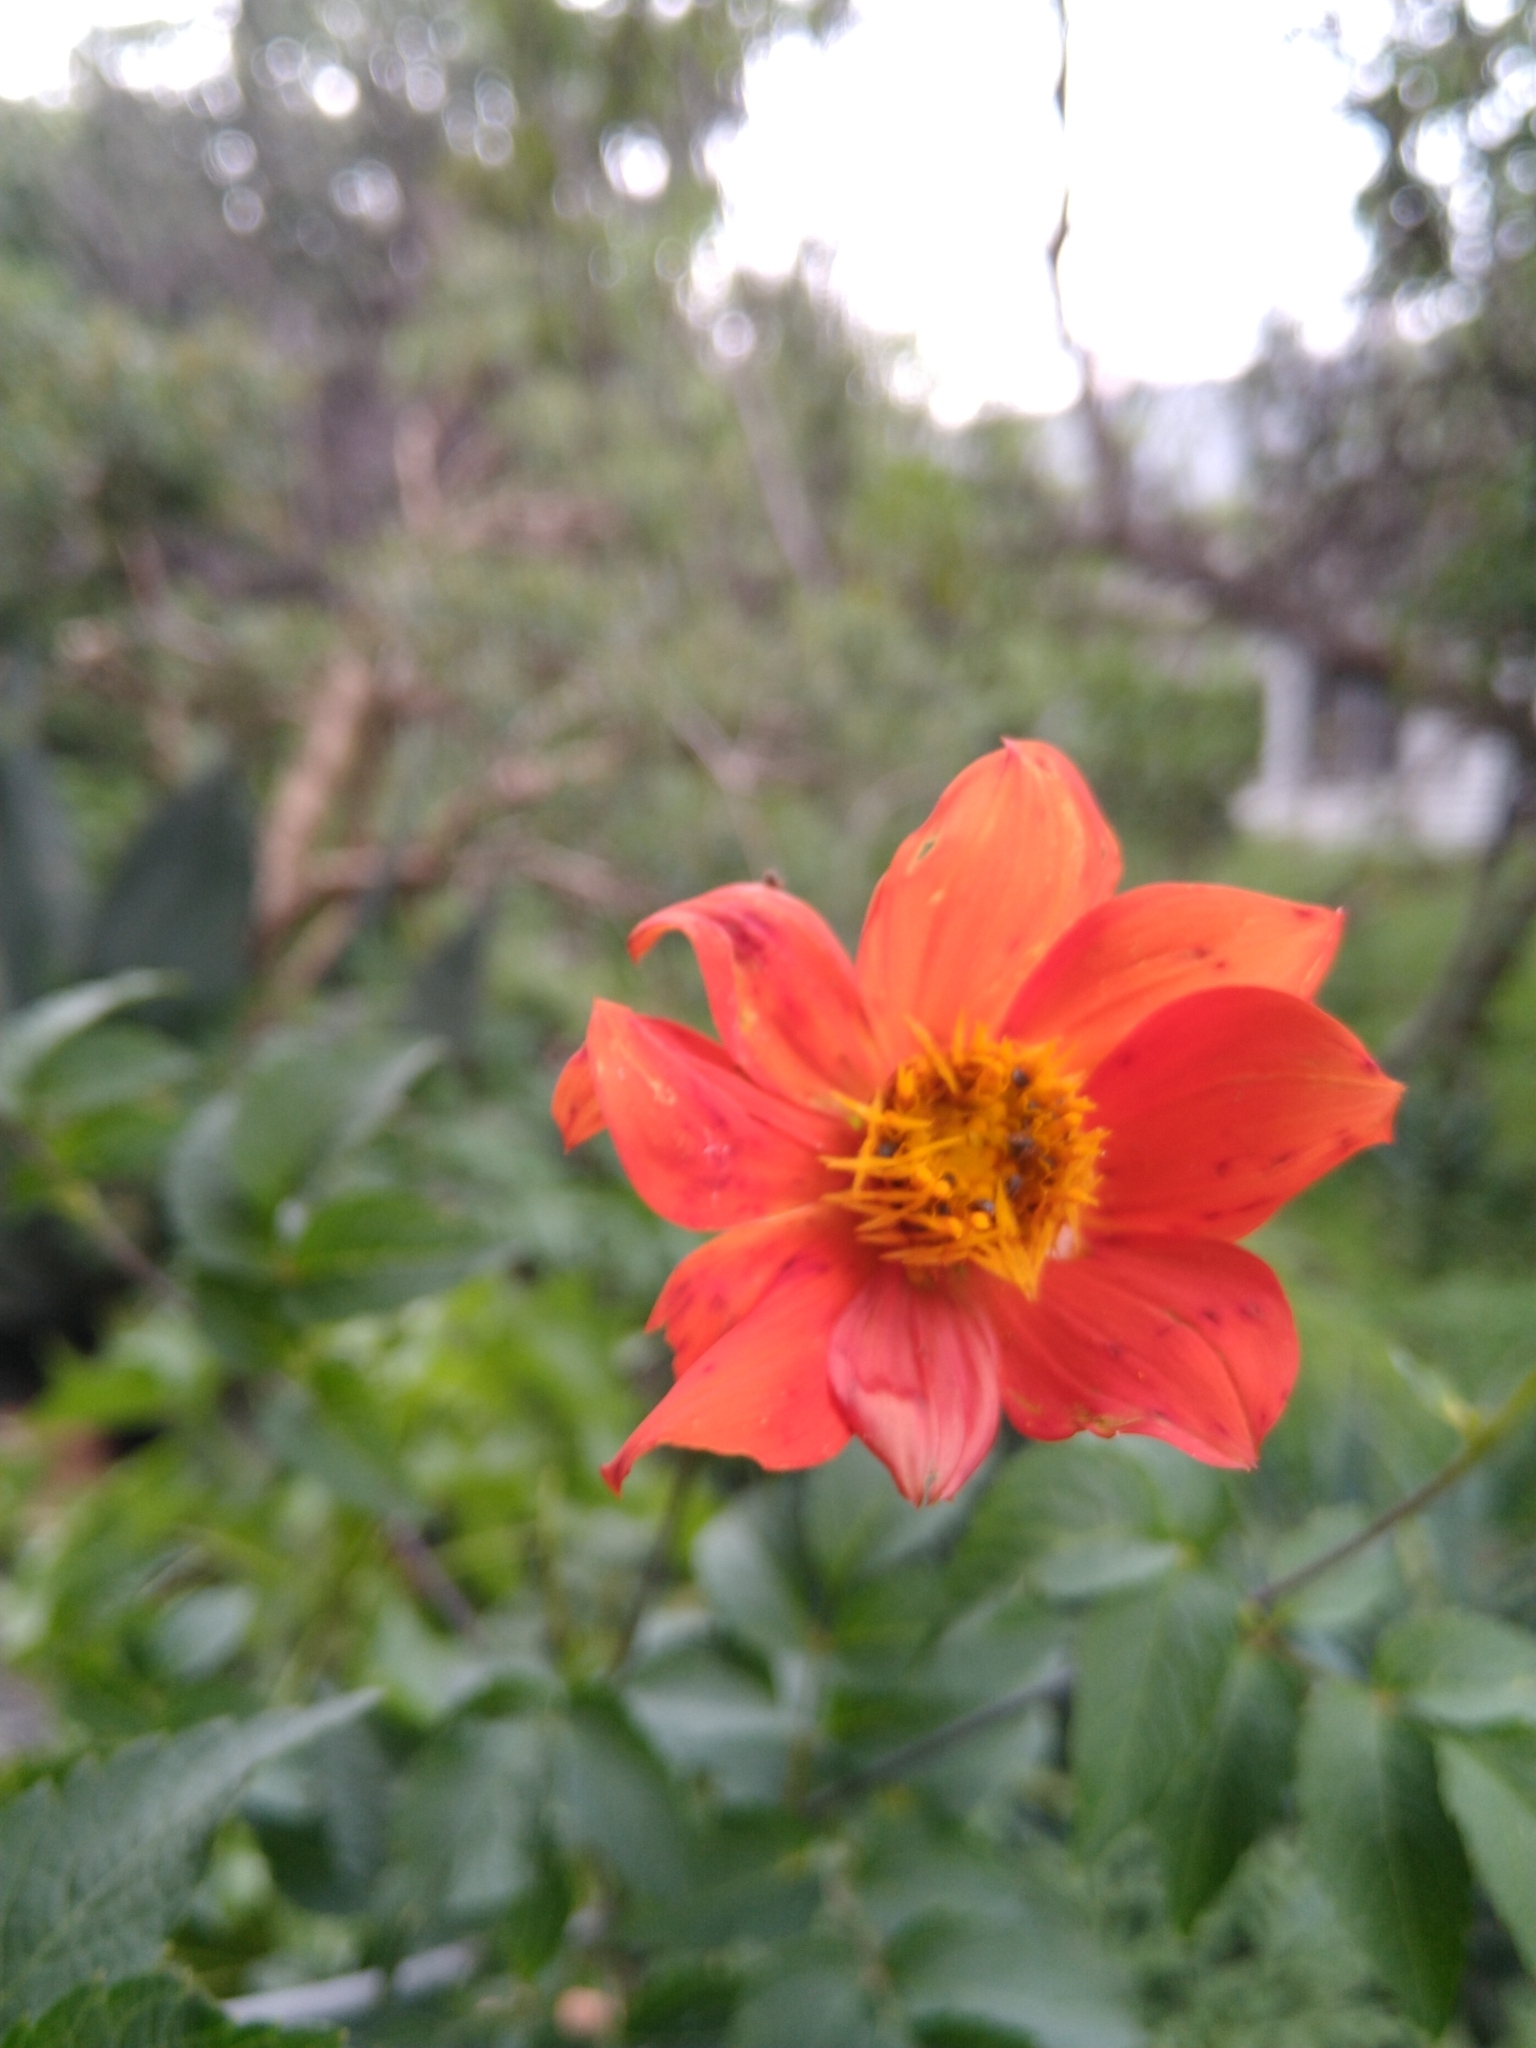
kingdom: Plantae
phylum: Tracheophyta
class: Magnoliopsida
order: Asterales
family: Asteraceae
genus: Dahlia
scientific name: Dahlia coccinea
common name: Red dahlia
